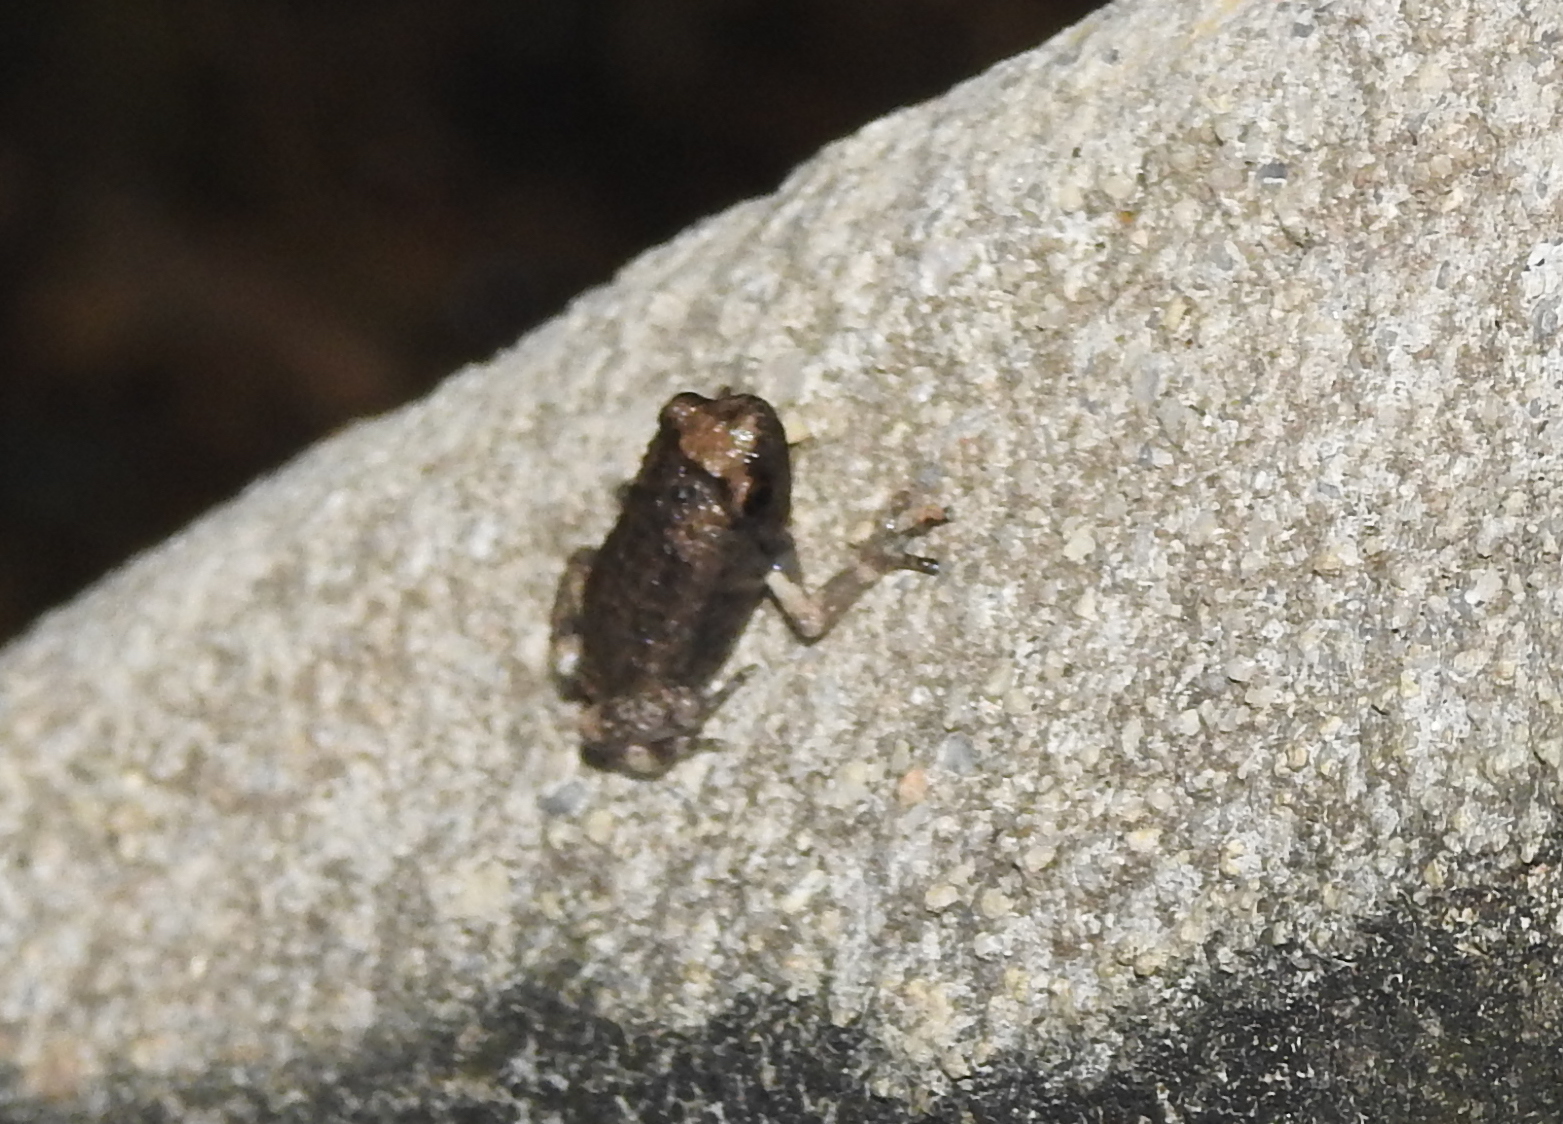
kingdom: Animalia
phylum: Chordata
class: Amphibia
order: Anura
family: Microhylidae
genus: Kaloula
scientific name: Kaloula pulchra
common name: Common,banded bullfrog
